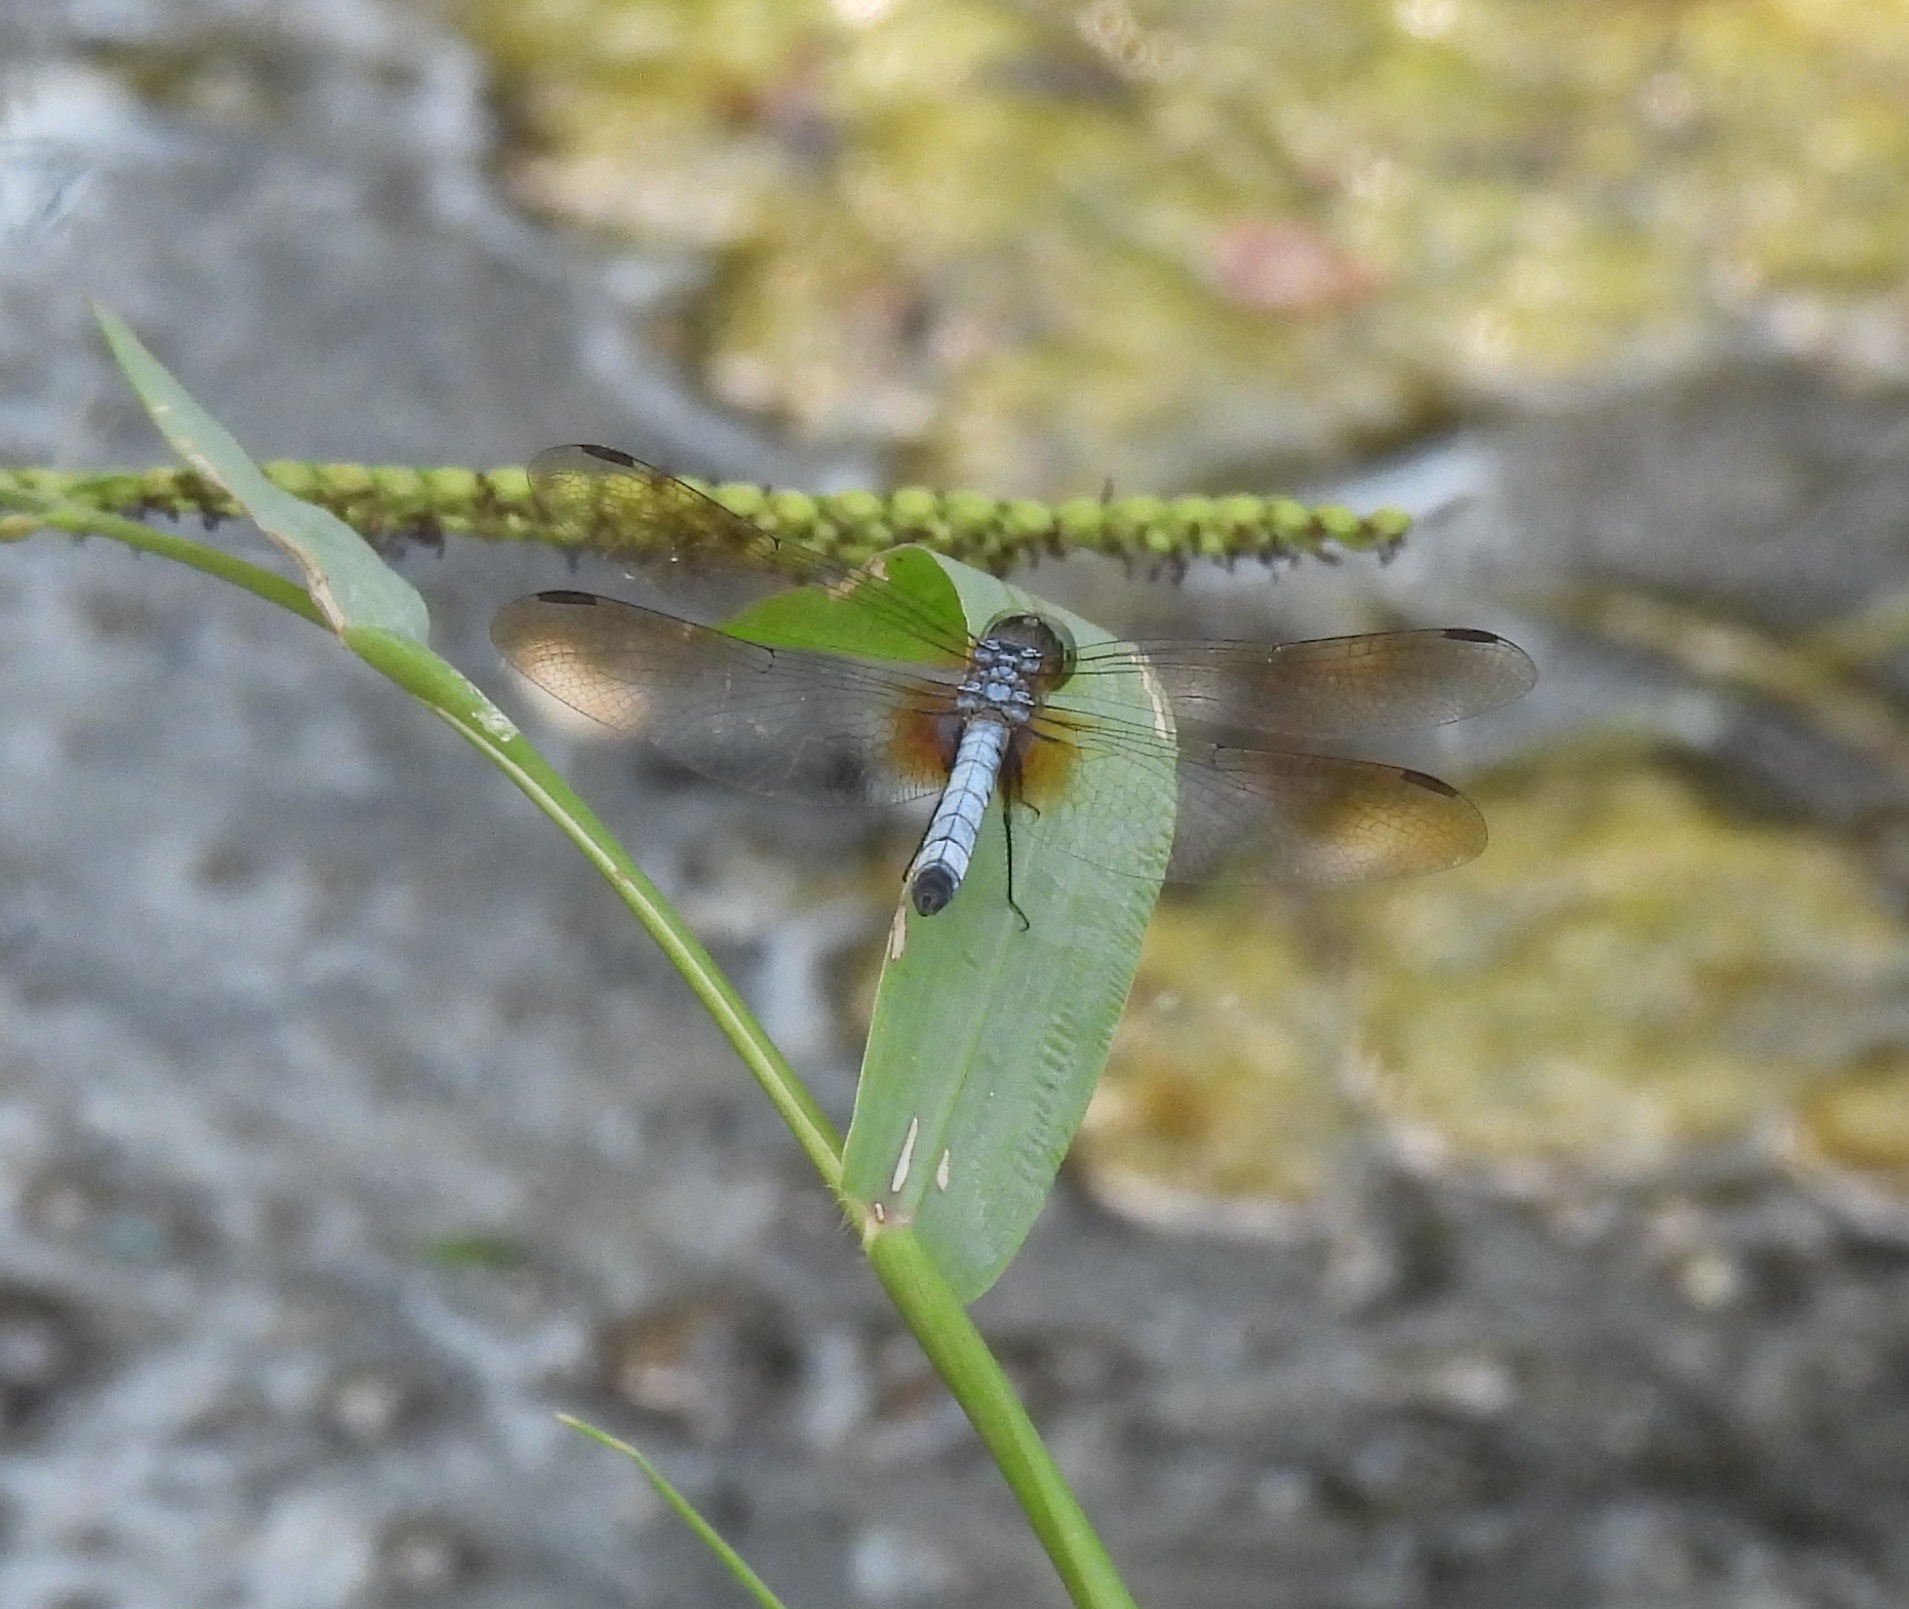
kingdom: Animalia
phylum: Arthropoda
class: Insecta
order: Odonata
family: Libellulidae
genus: Pachydiplax
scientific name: Pachydiplax longipennis
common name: Blue dasher
